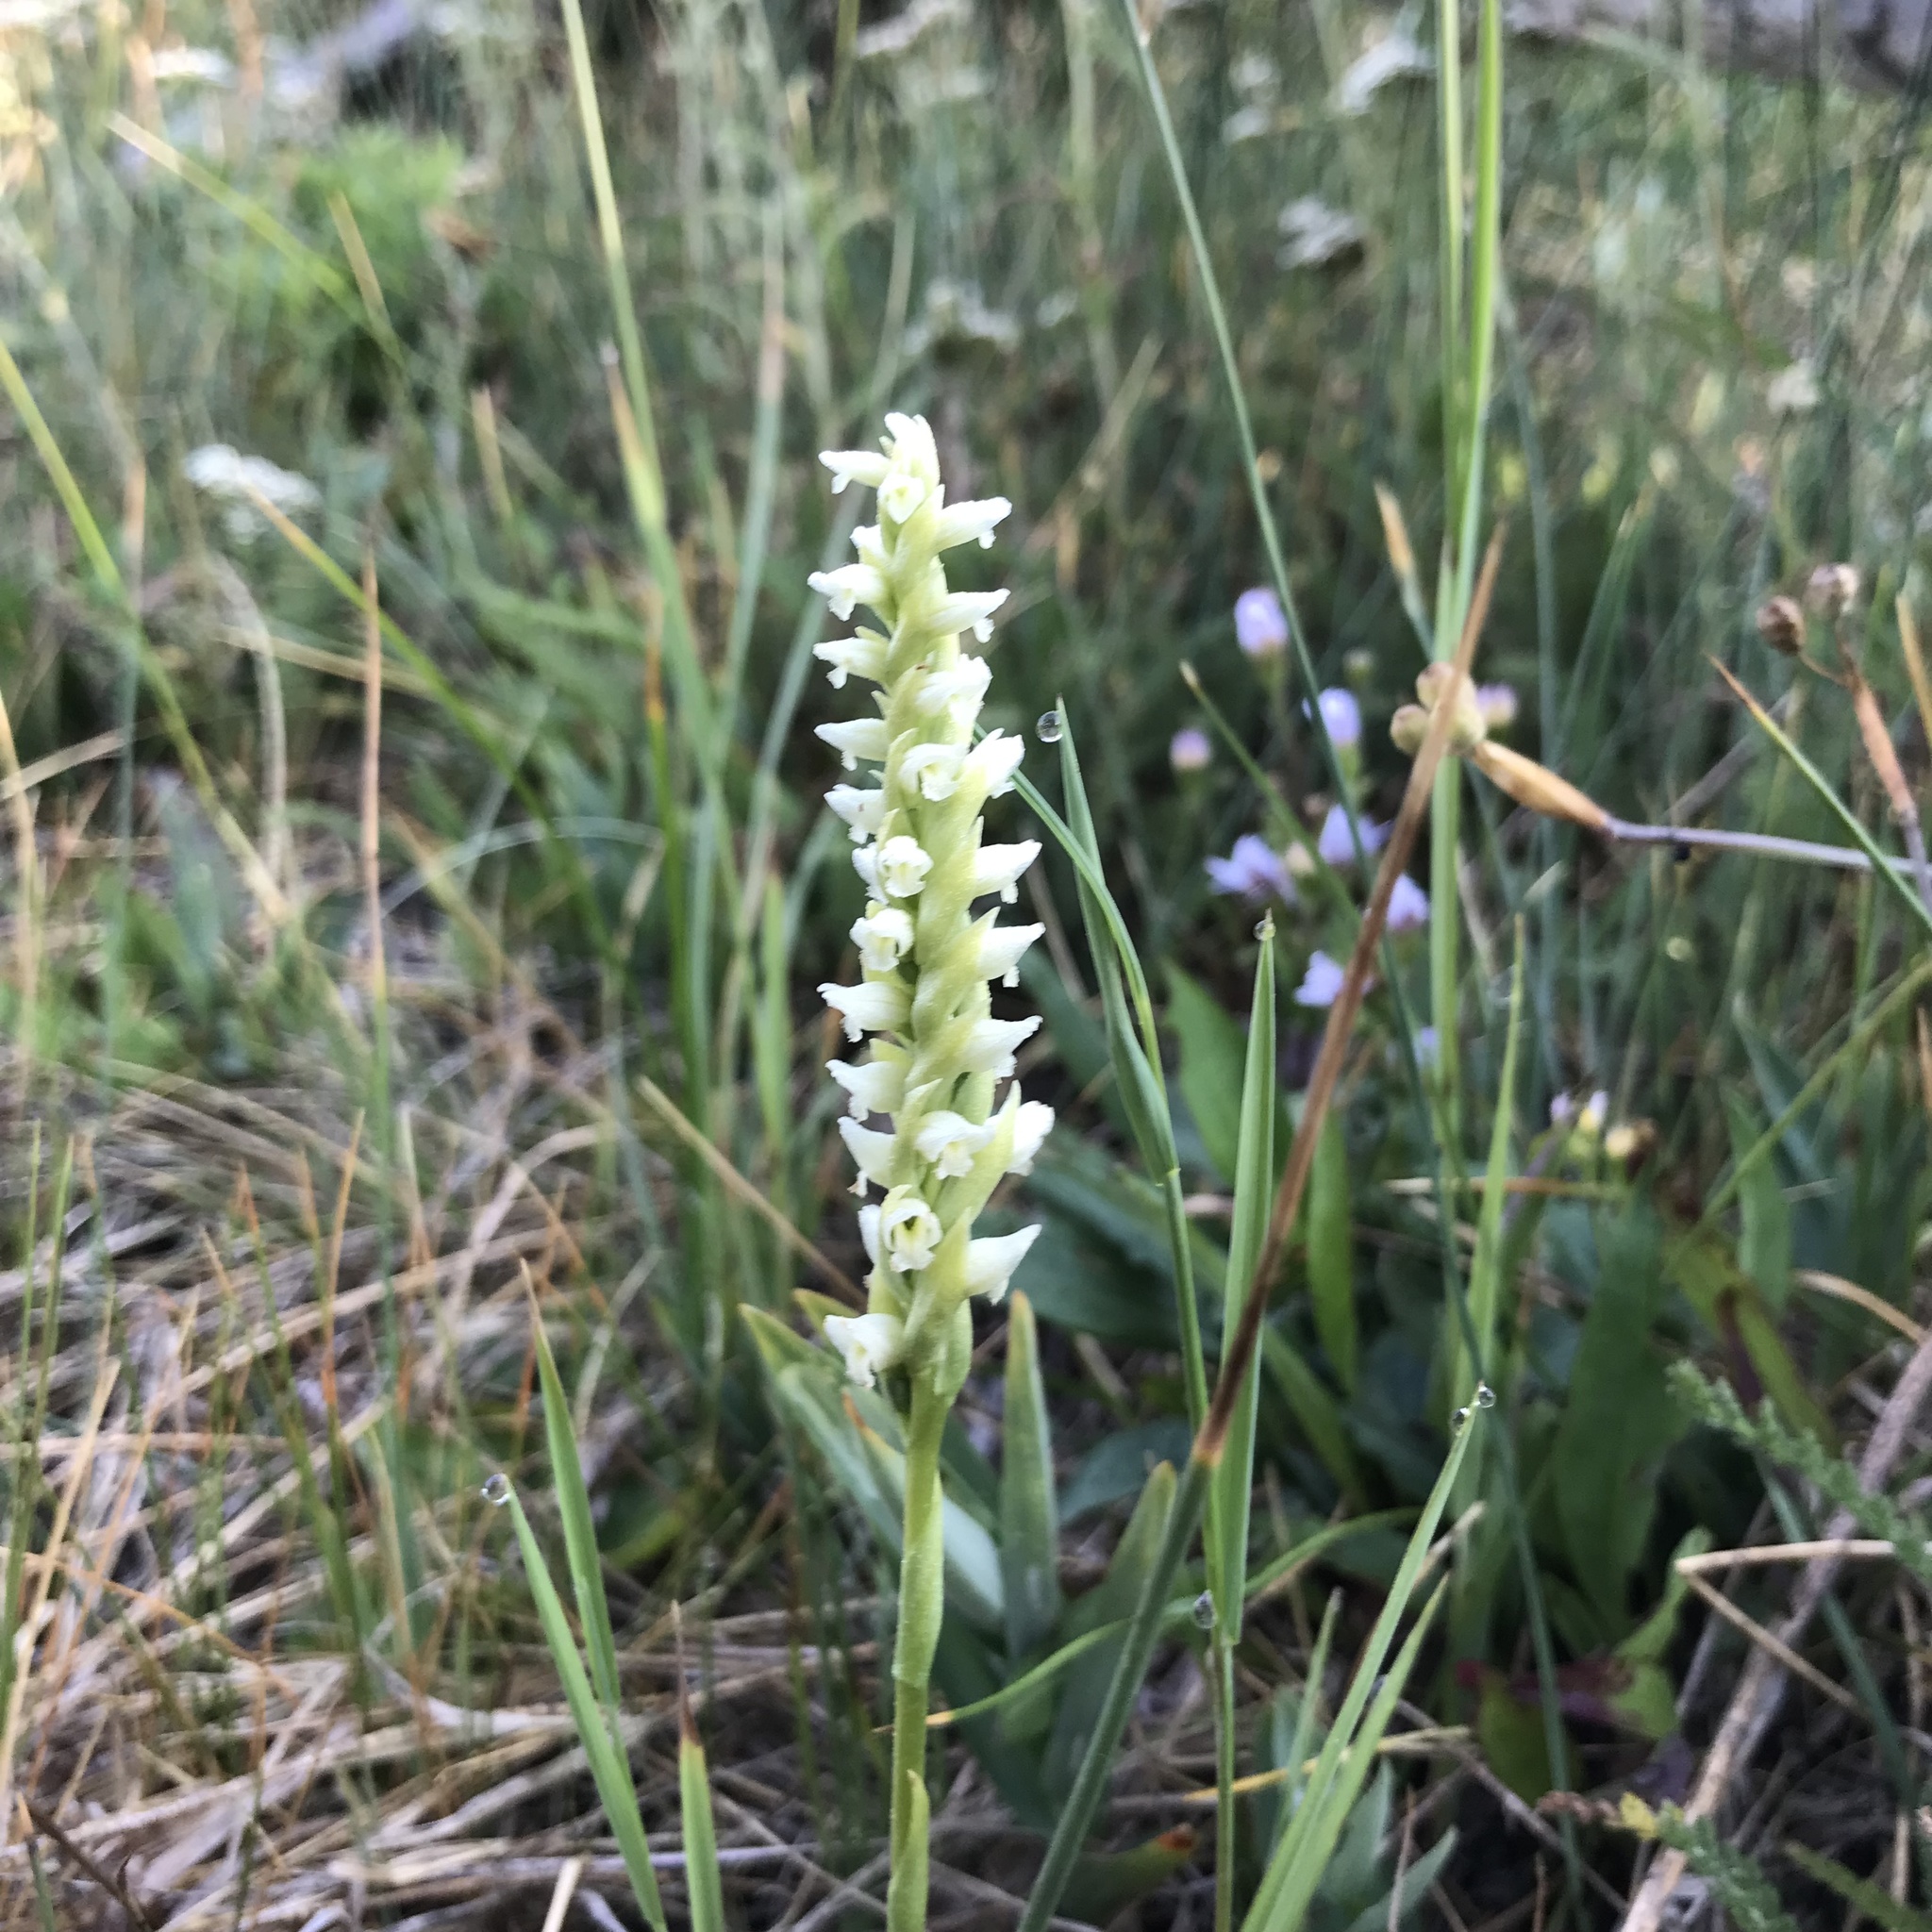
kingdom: Plantae
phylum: Tracheophyta
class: Liliopsida
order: Asparagales
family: Orchidaceae
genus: Spiranthes
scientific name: Spiranthes romanzoffiana
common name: Irish lady's-tresses
